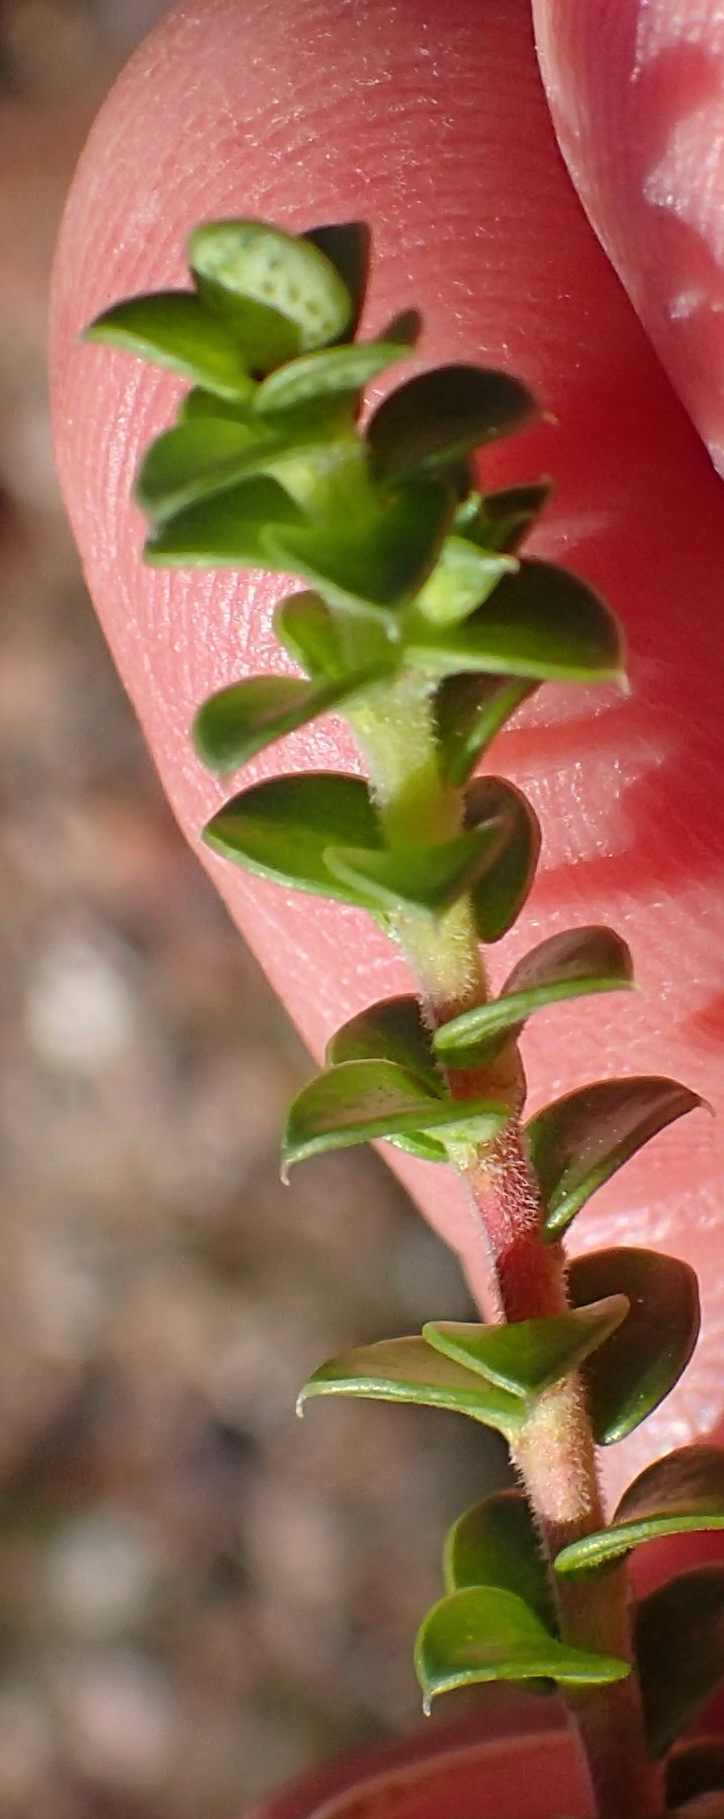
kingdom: Plantae
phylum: Tracheophyta
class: Magnoliopsida
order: Sapindales
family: Rutaceae
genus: Agathosma
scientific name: Agathosma recurvifolia
